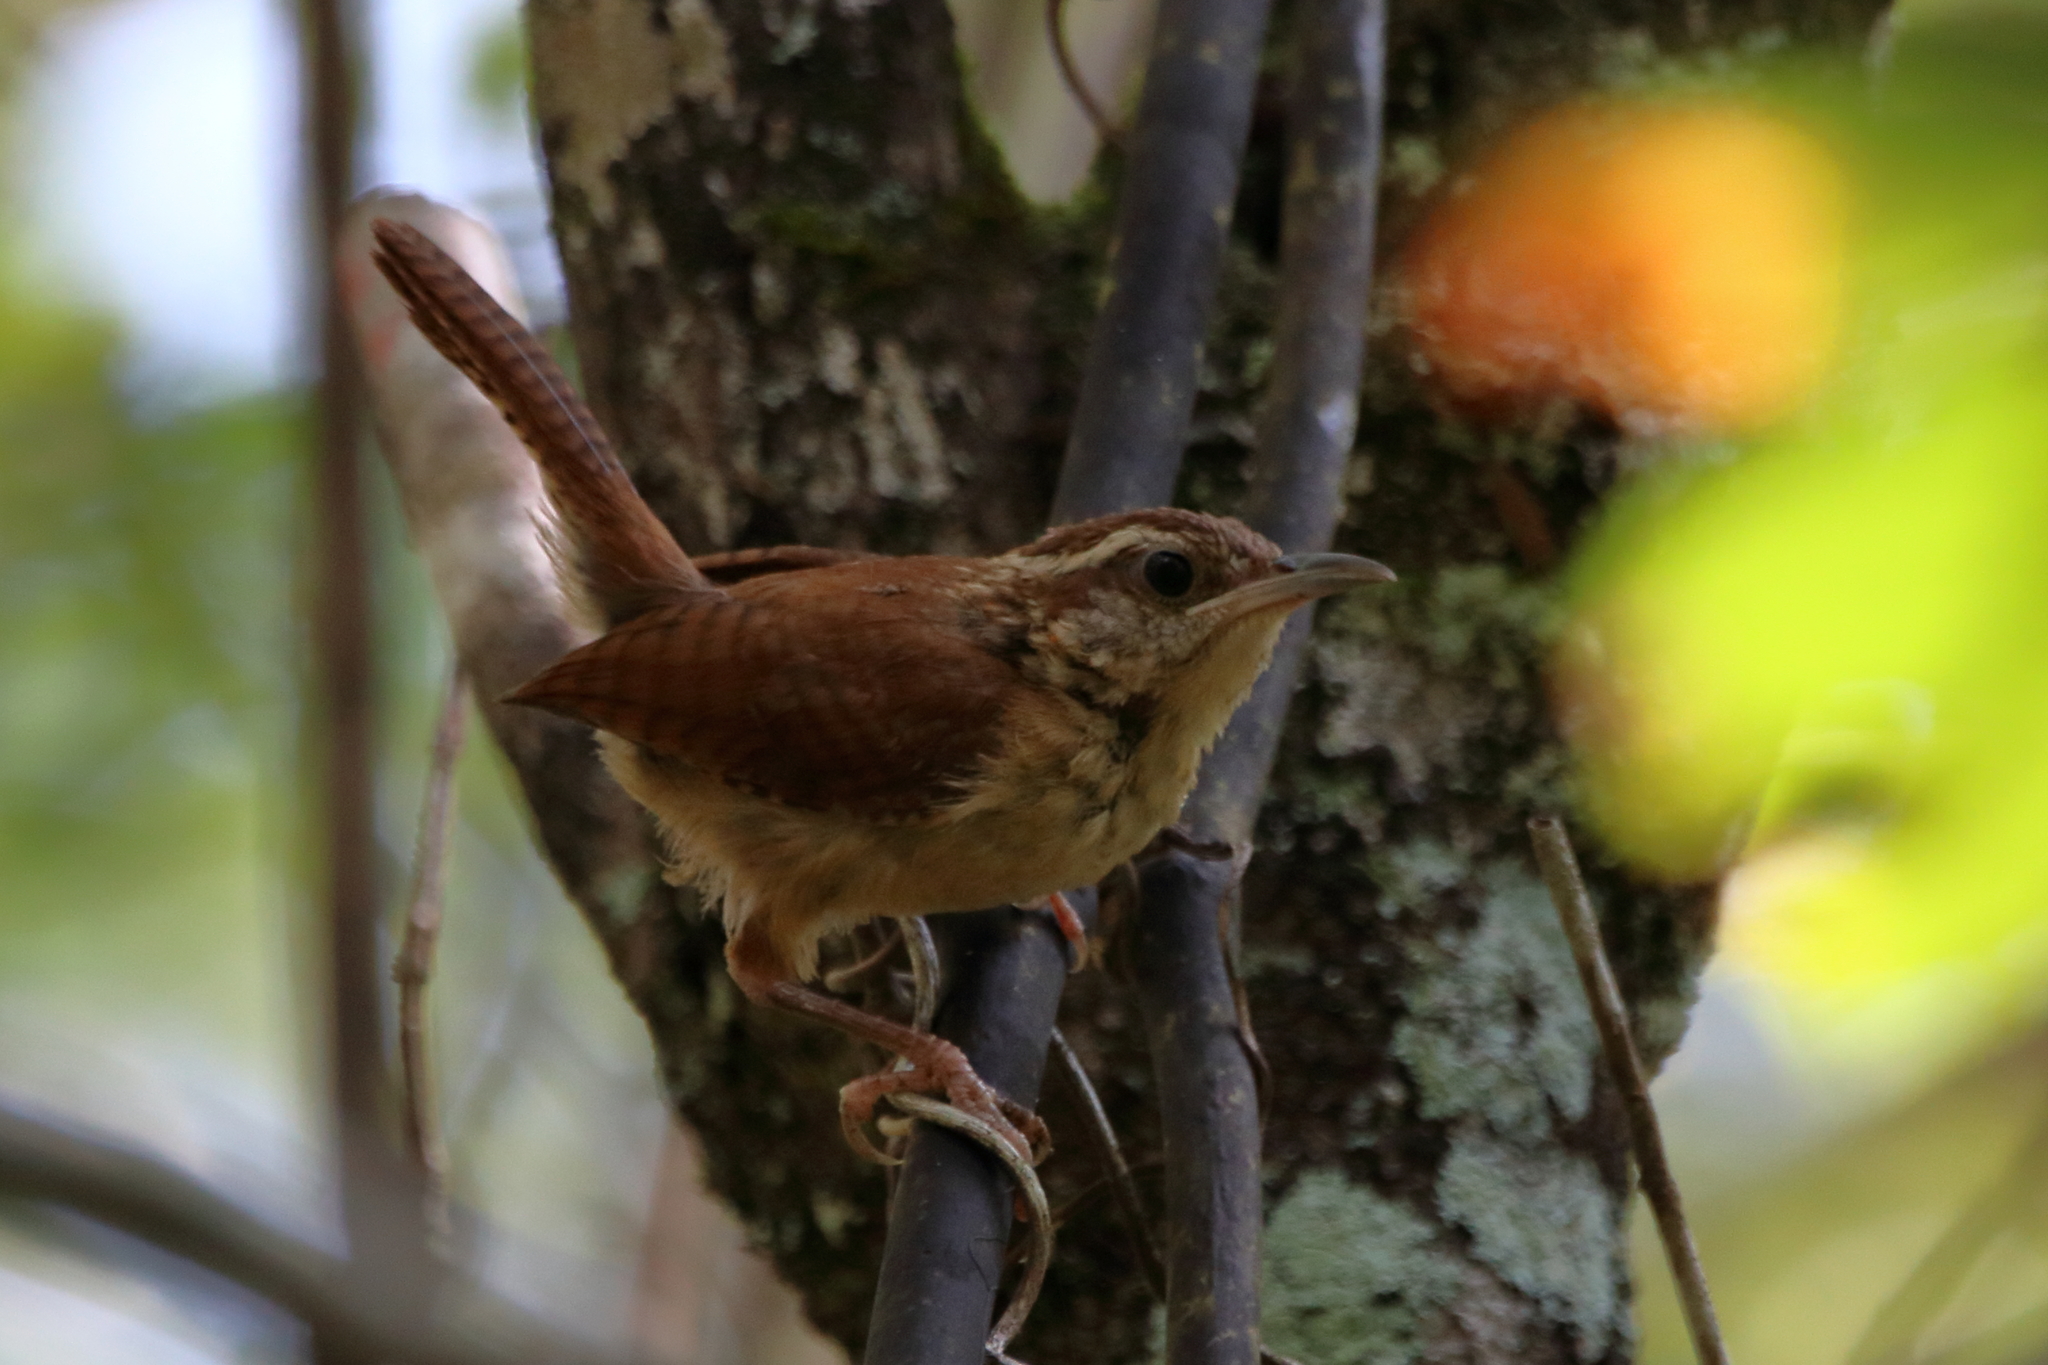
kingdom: Animalia
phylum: Chordata
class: Aves
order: Passeriformes
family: Troglodytidae
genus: Thryothorus
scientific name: Thryothorus ludovicianus
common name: Carolina wren
